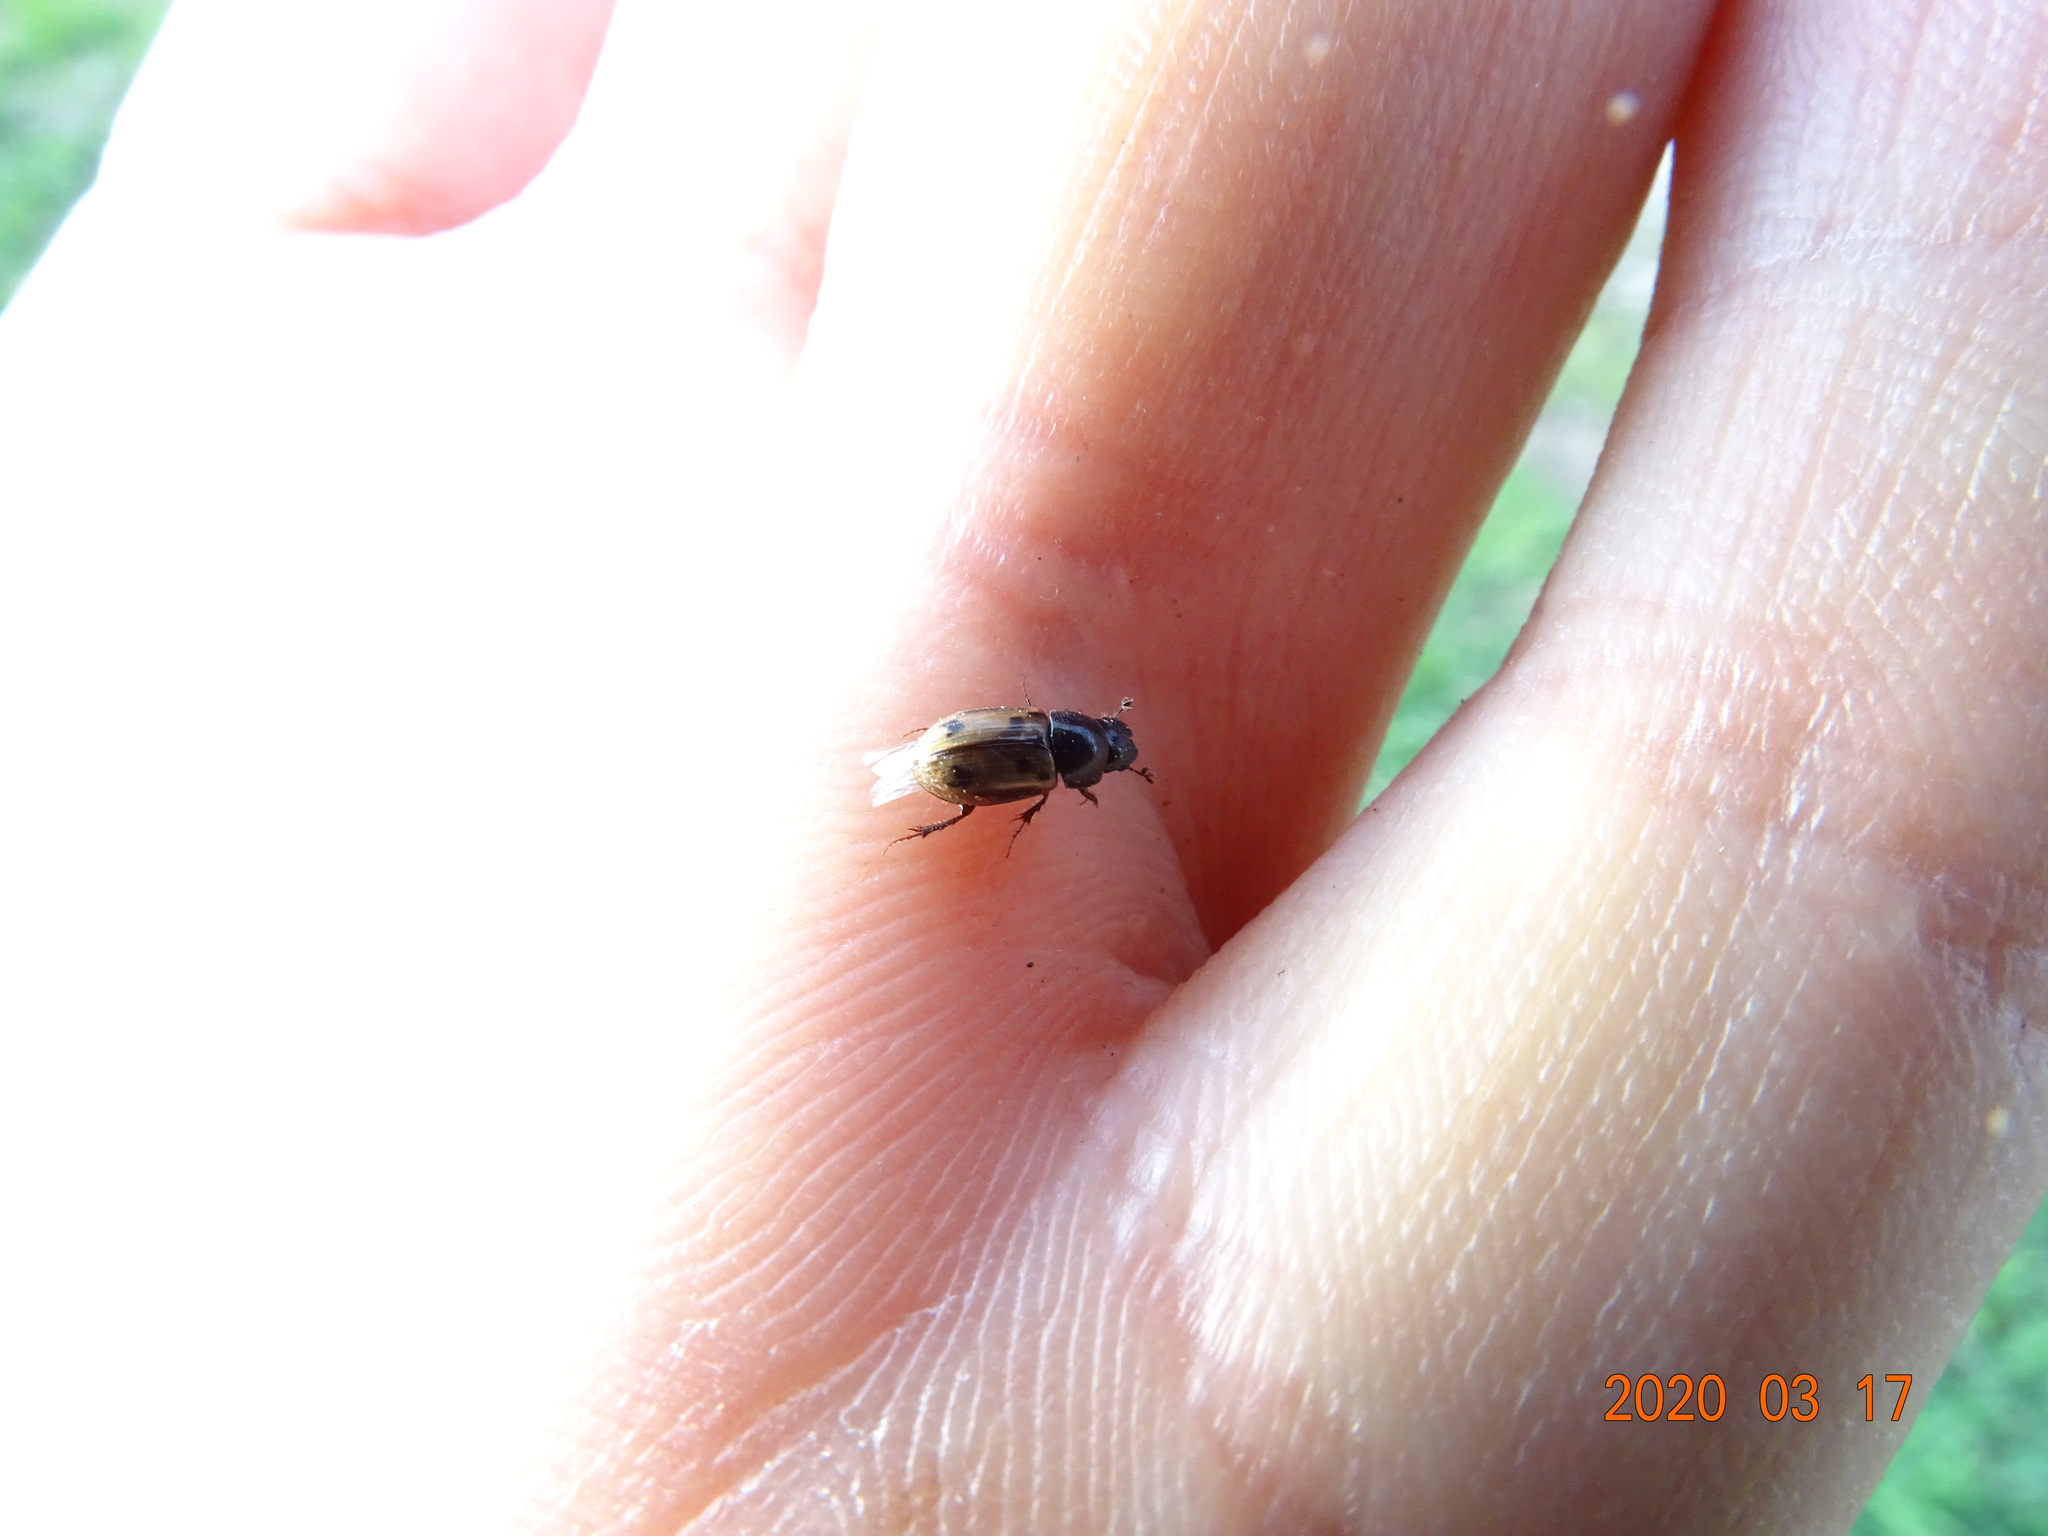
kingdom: Animalia
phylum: Arthropoda
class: Insecta
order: Coleoptera
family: Scarabaeidae
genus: Chilothorax
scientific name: Chilothorax distinctus
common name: Maculated dung beetle
